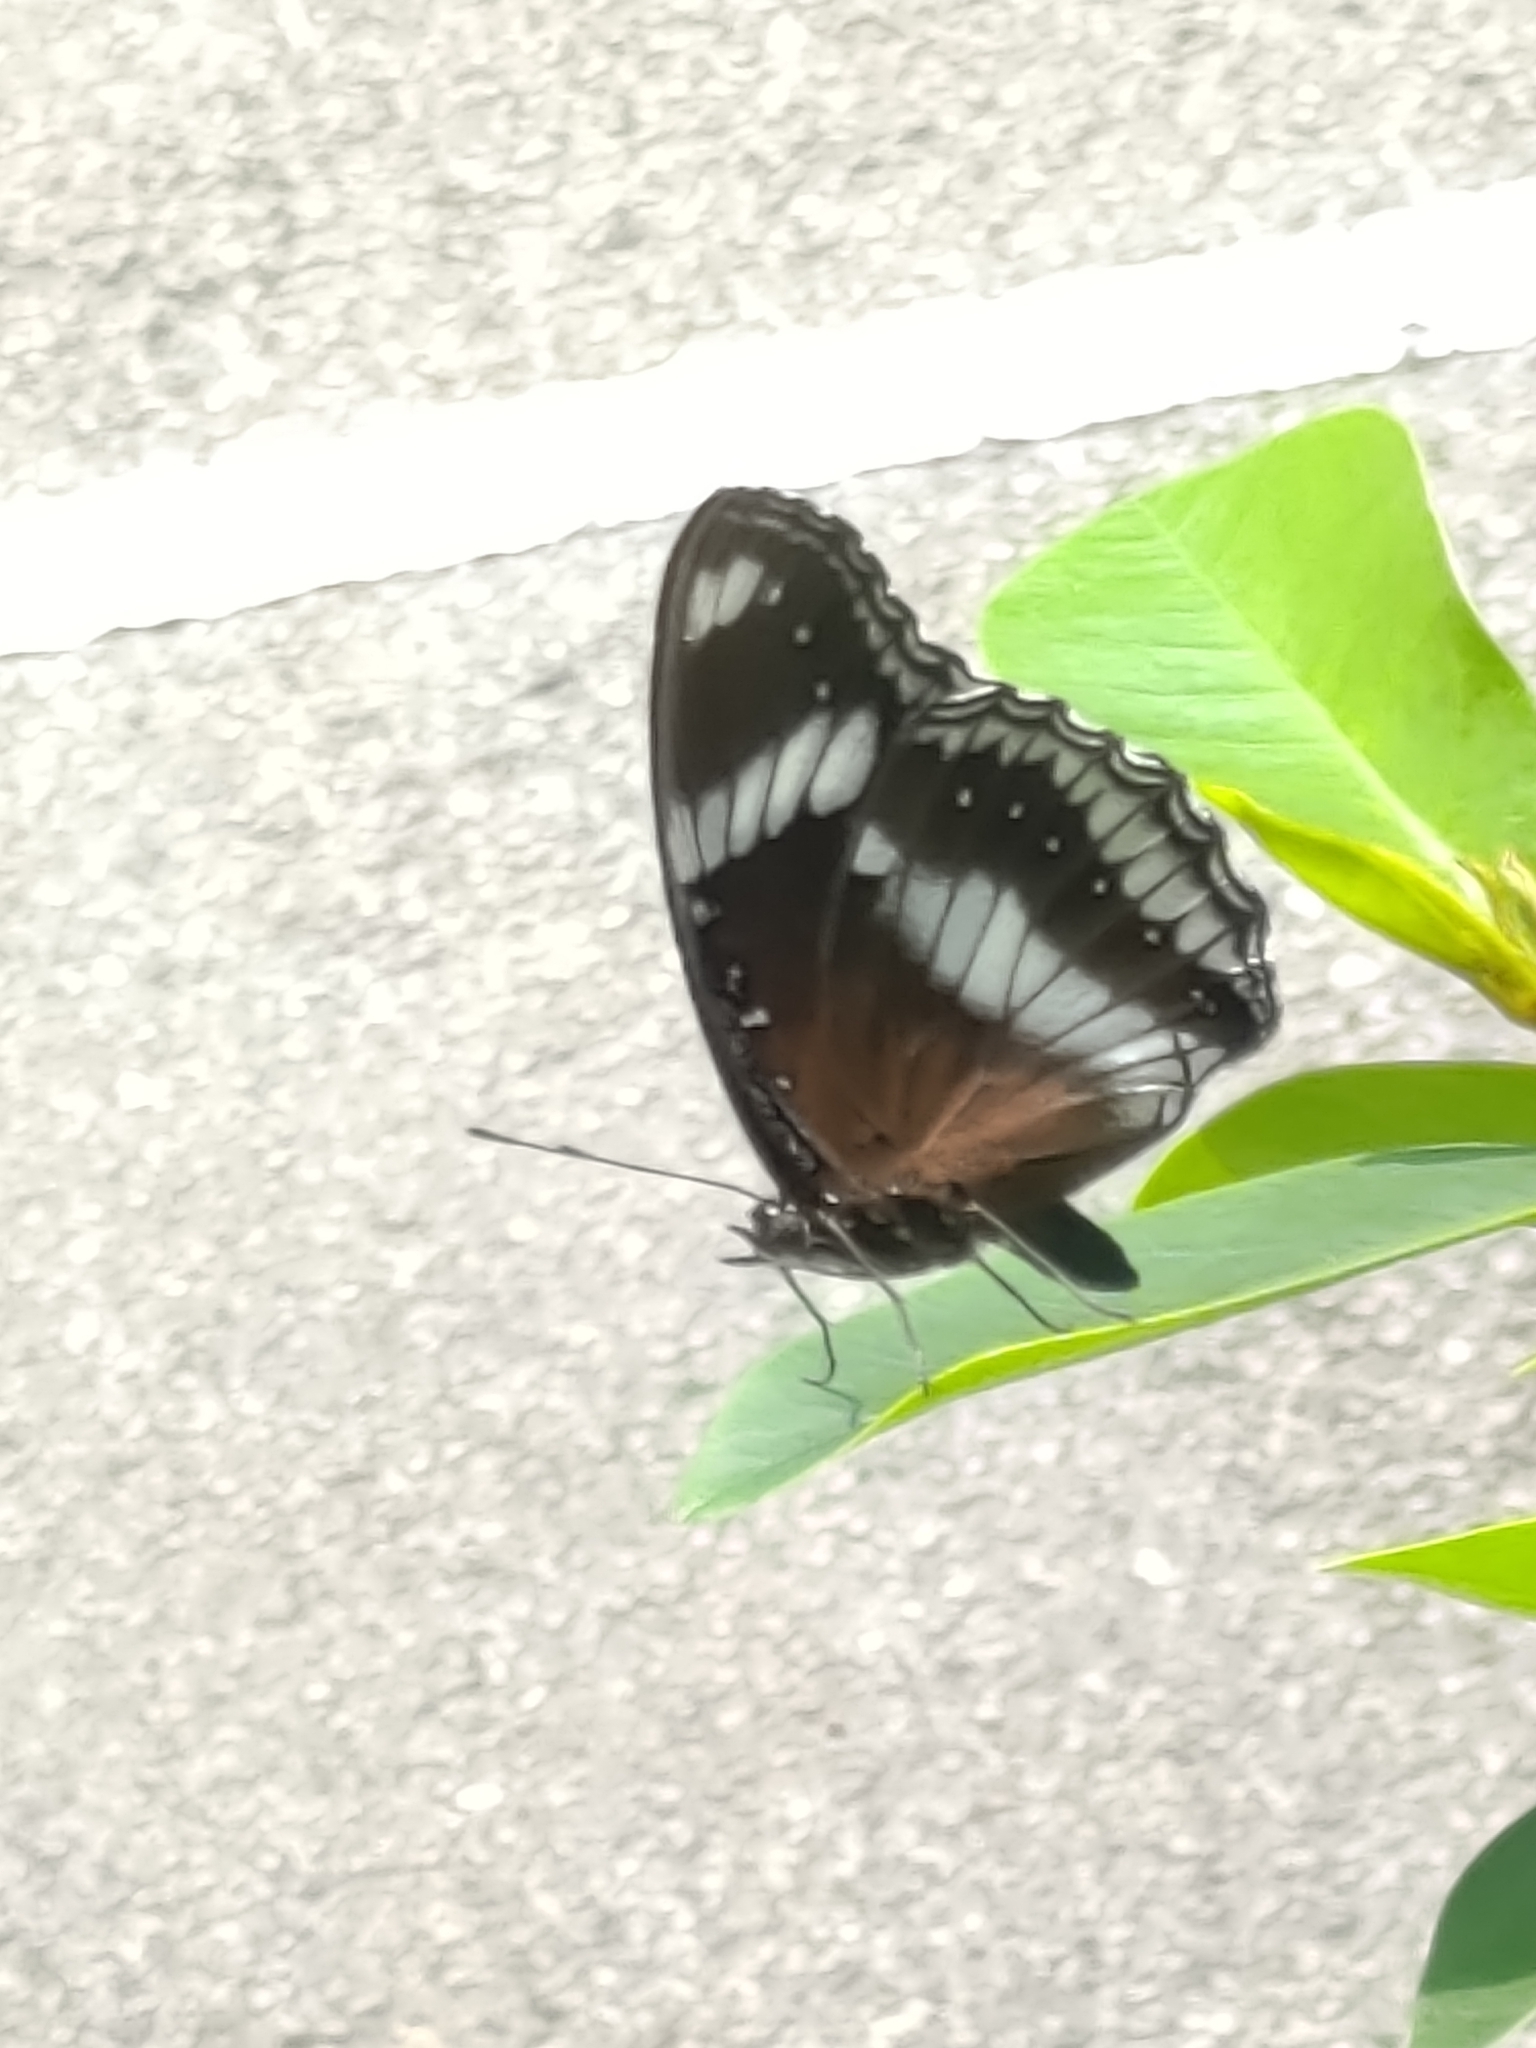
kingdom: Animalia
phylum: Arthropoda
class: Insecta
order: Lepidoptera
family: Nymphalidae
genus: Hypolimnas
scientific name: Hypolimnas bolina
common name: Great eggfly
